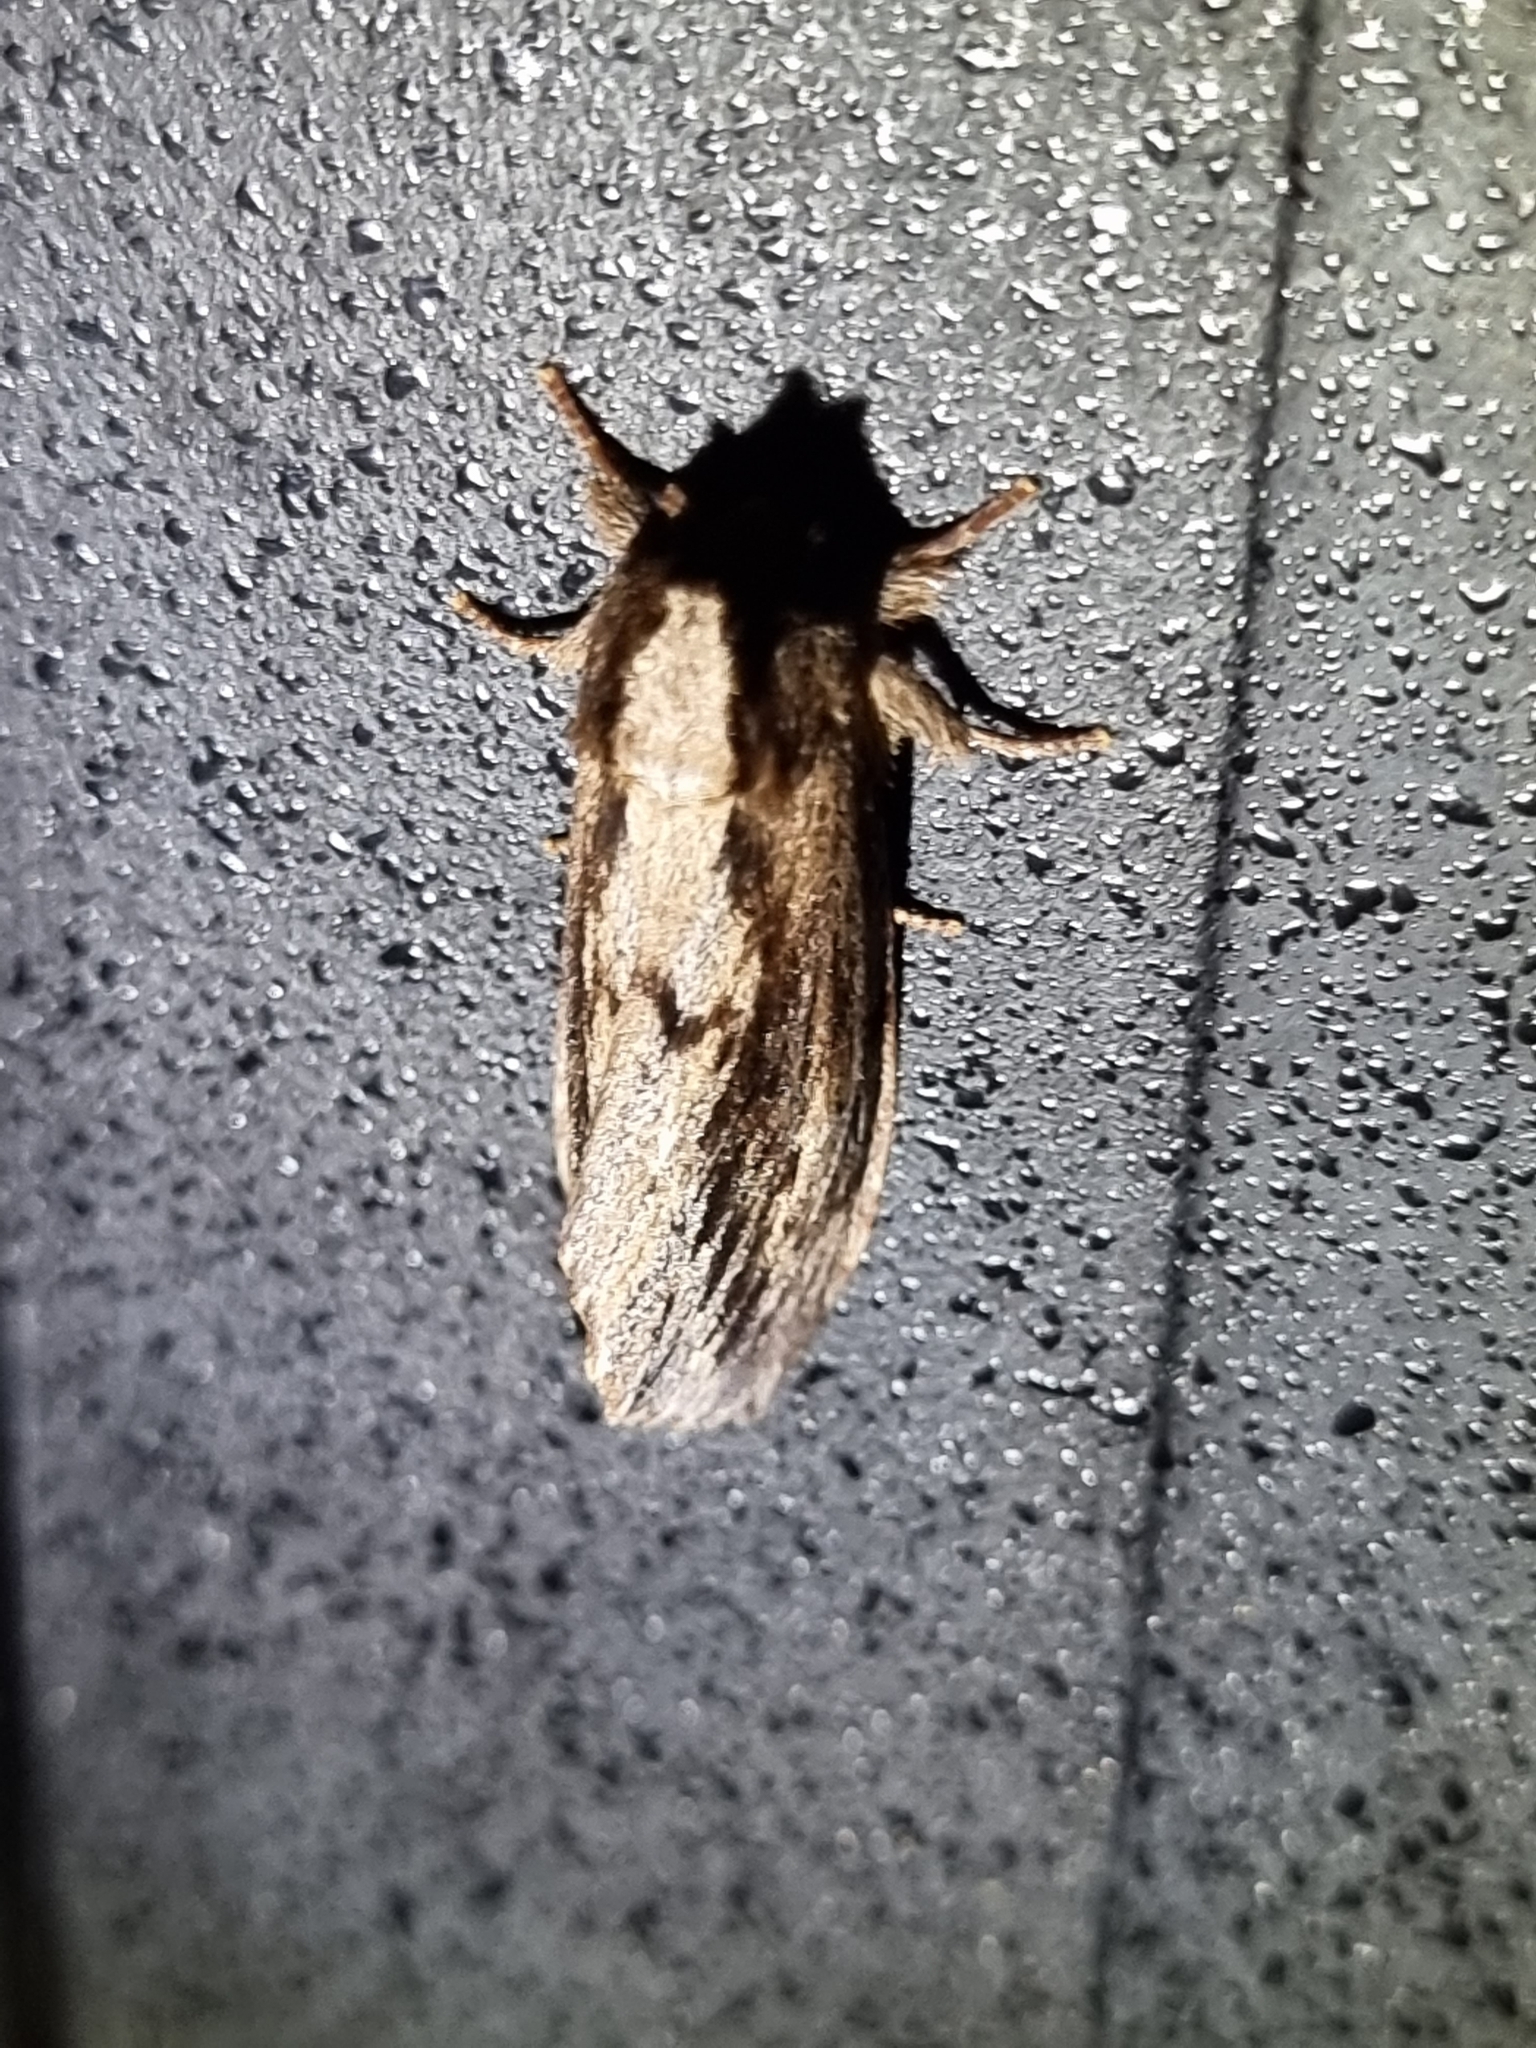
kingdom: Animalia
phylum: Arthropoda
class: Insecta
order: Lepidoptera
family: Notodontidae
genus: Hylaeora
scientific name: Hylaeora capucina
